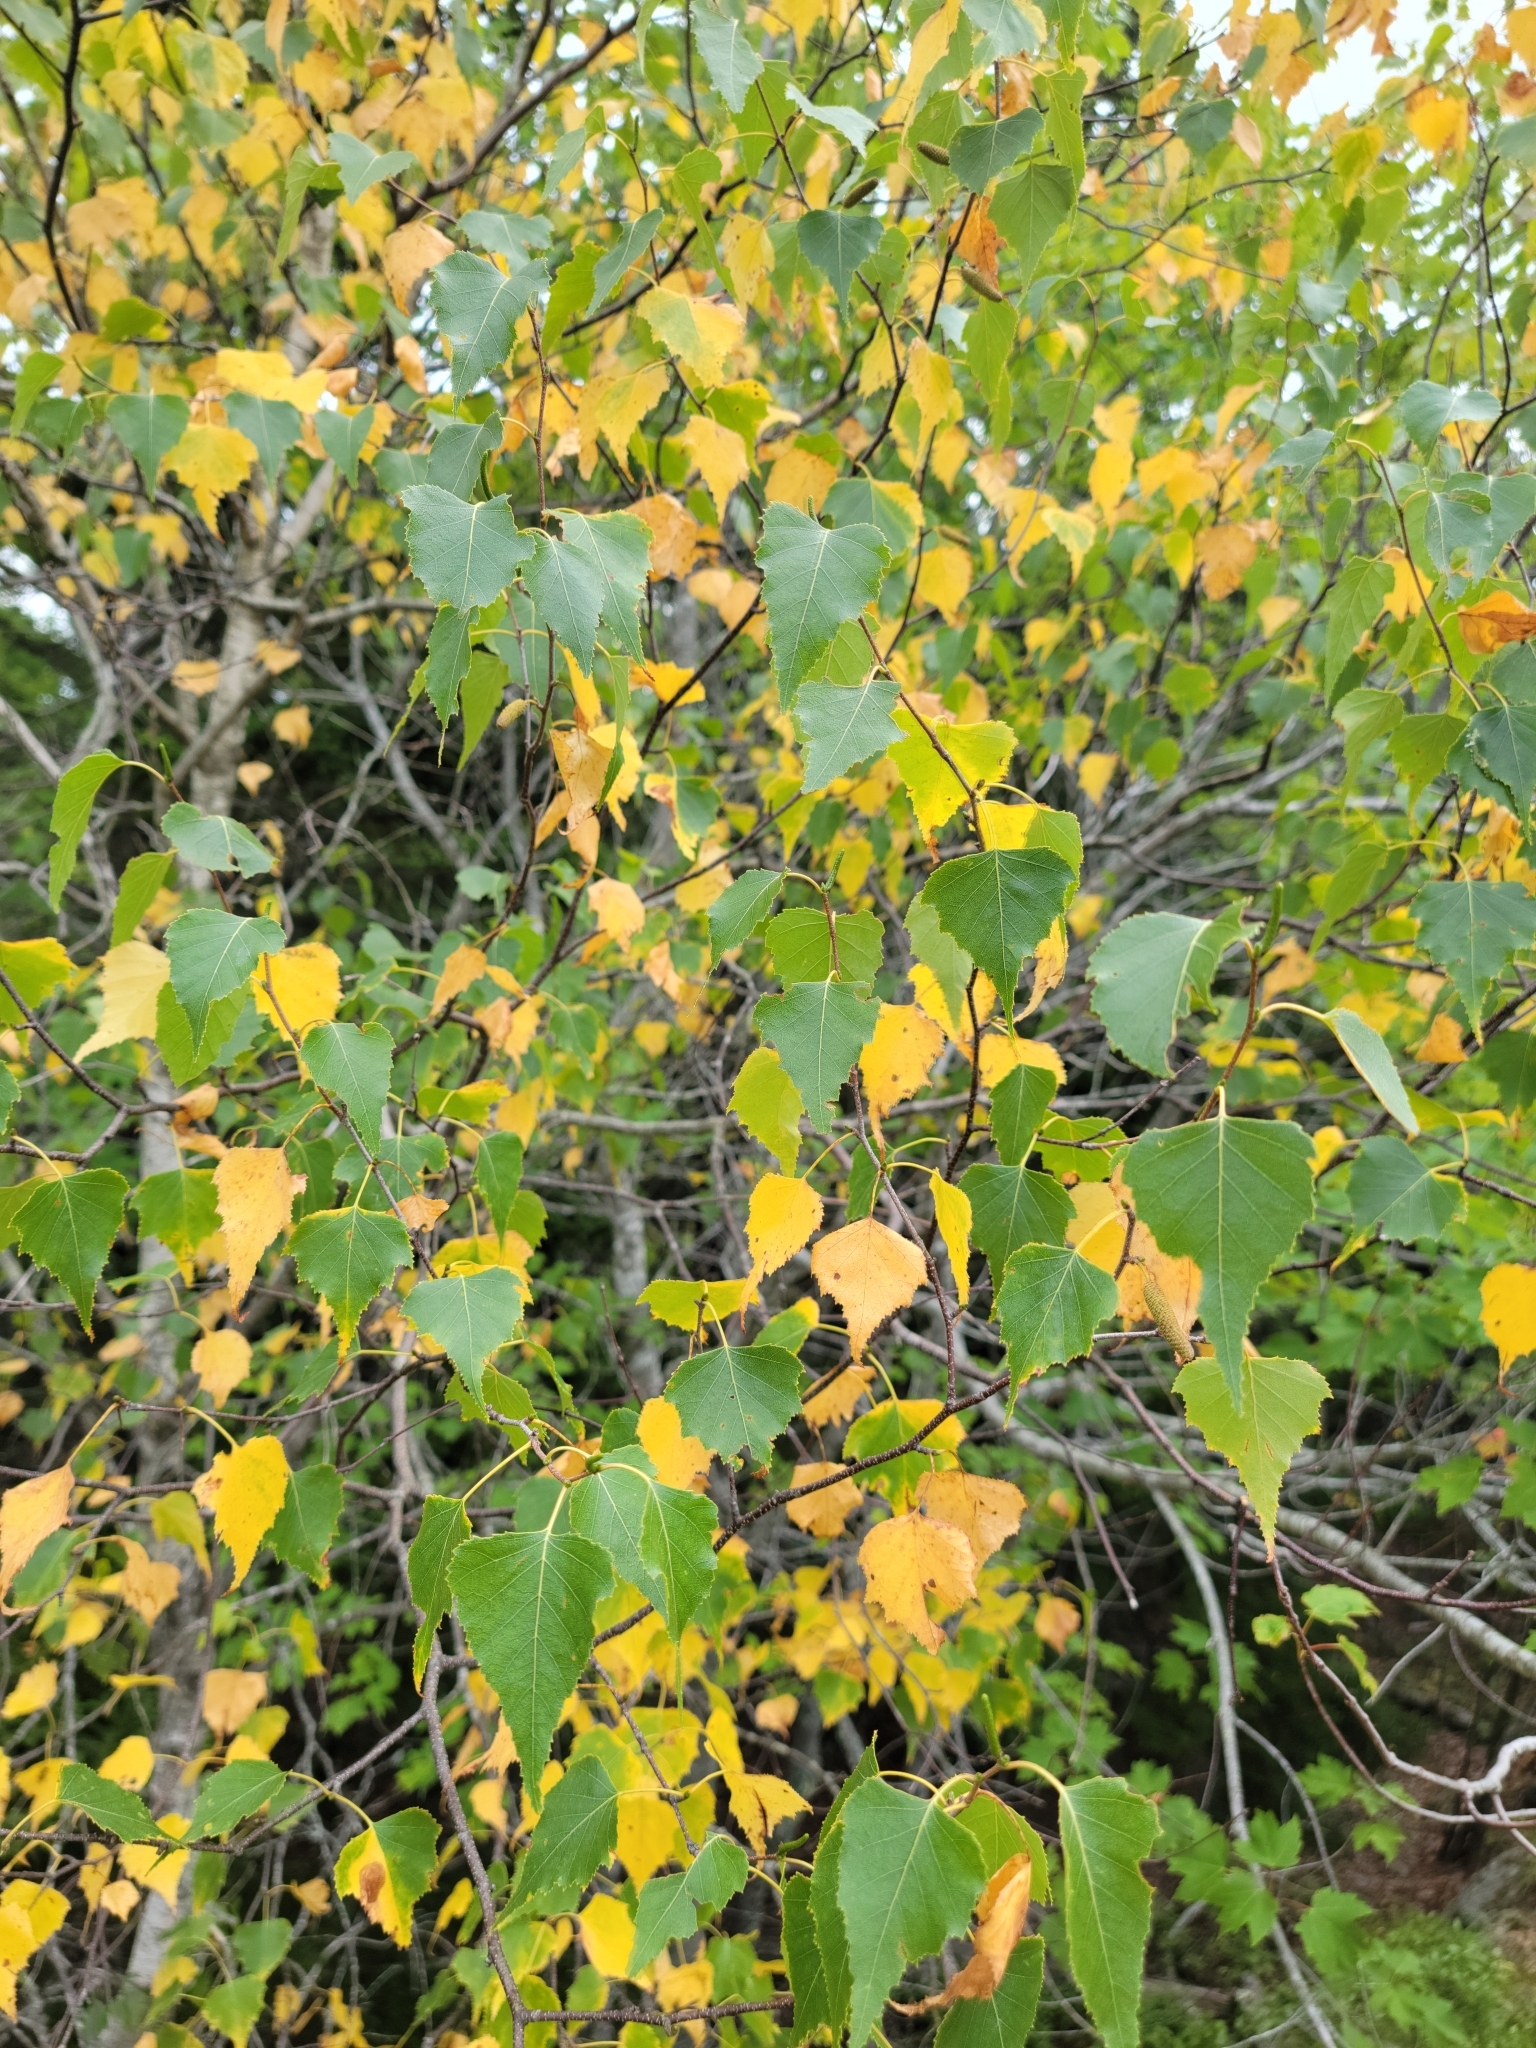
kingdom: Plantae
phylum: Tracheophyta
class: Magnoliopsida
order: Fagales
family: Betulaceae
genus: Betula
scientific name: Betula populifolia
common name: Fire birch
